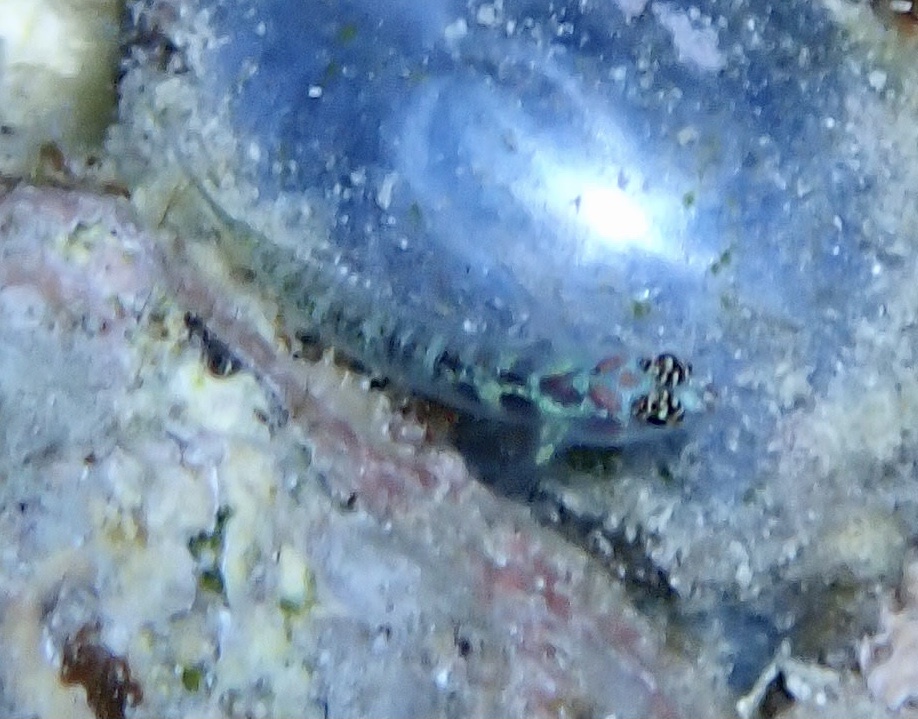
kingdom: Animalia
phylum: Chordata
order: Perciformes
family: Gobiidae
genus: Eviota
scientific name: Eviota guttata
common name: Green pygmy-goby
